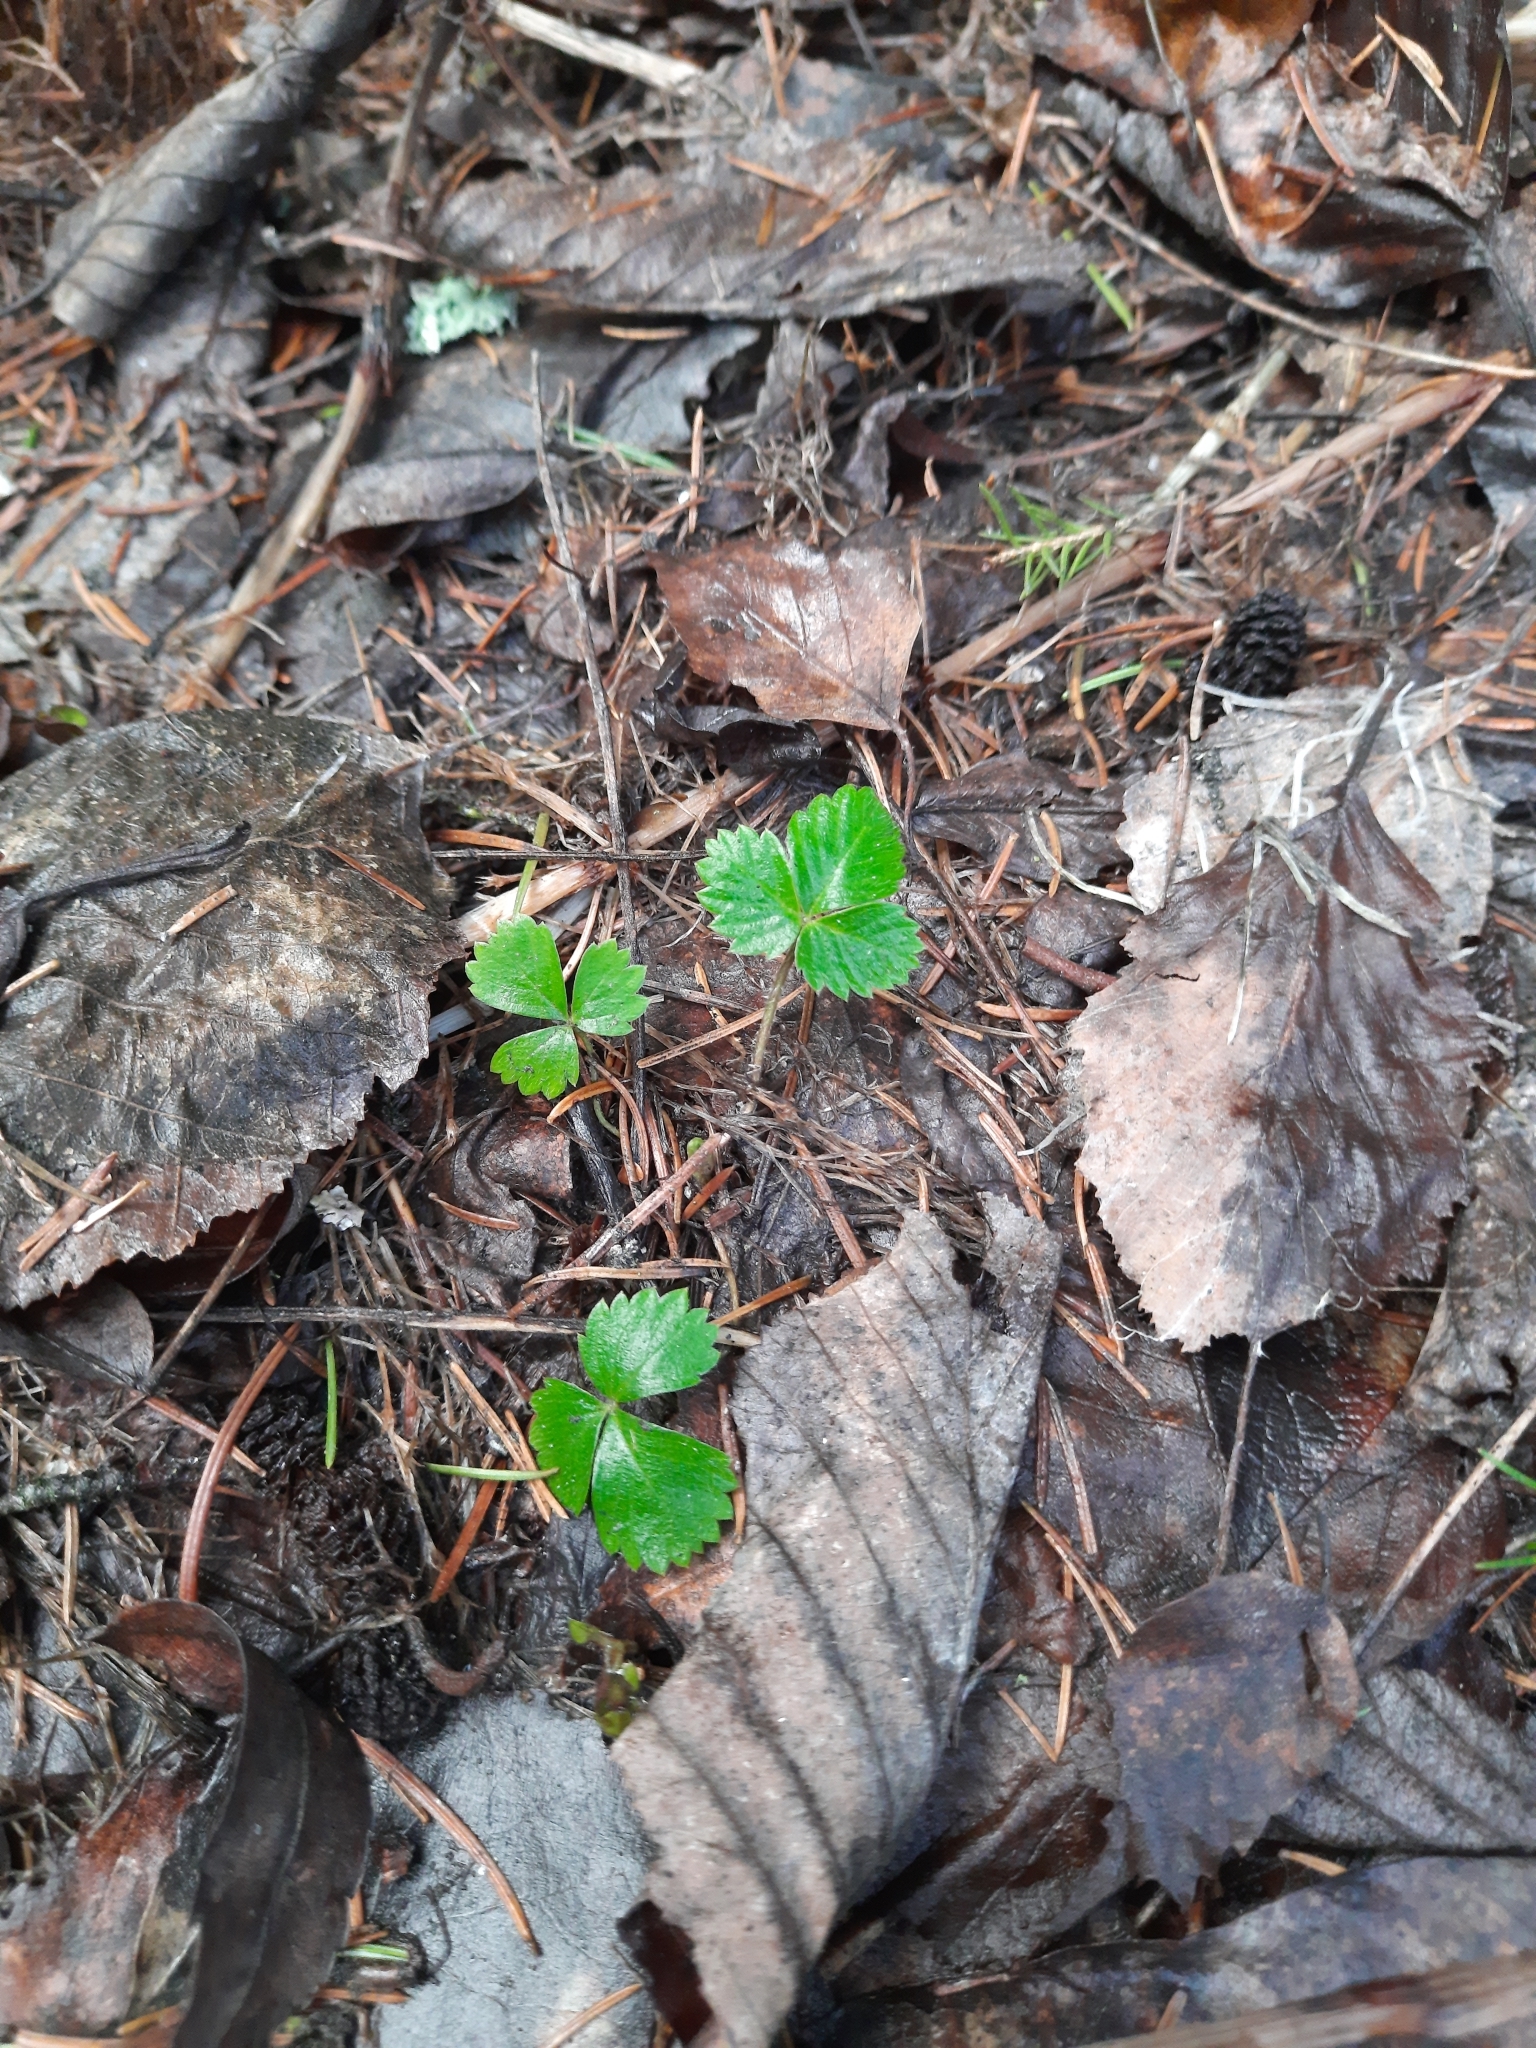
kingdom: Plantae
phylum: Tracheophyta
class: Magnoliopsida
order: Rosales
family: Rosaceae
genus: Fragaria
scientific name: Fragaria vesca
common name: Wild strawberry
